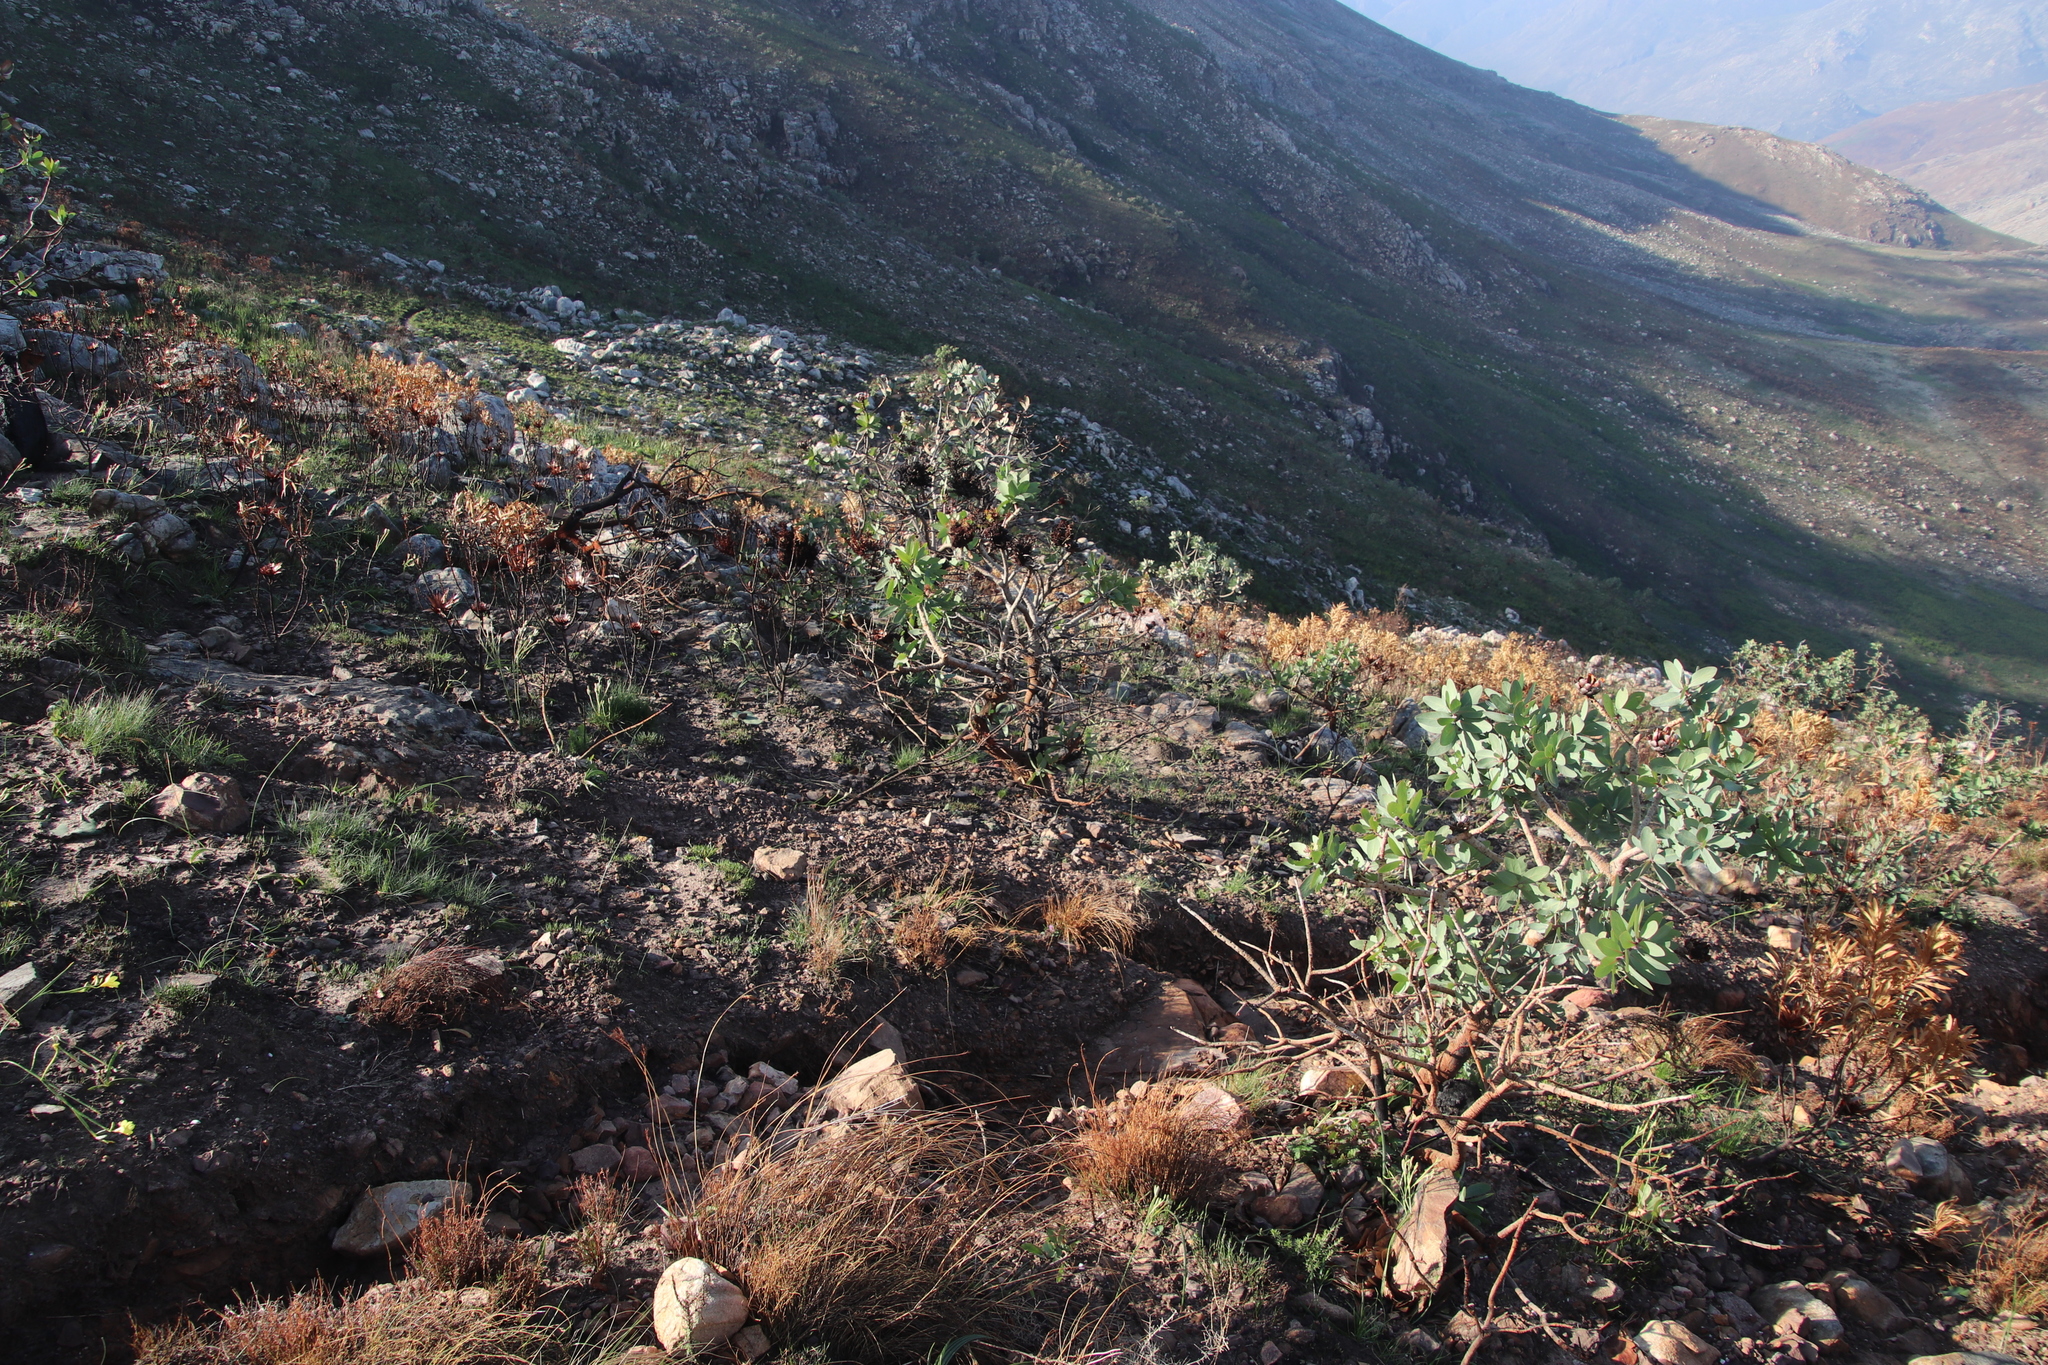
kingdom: Plantae
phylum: Tracheophyta
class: Magnoliopsida
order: Proteales
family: Proteaceae
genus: Protea
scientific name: Protea nitida
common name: Tree protea
